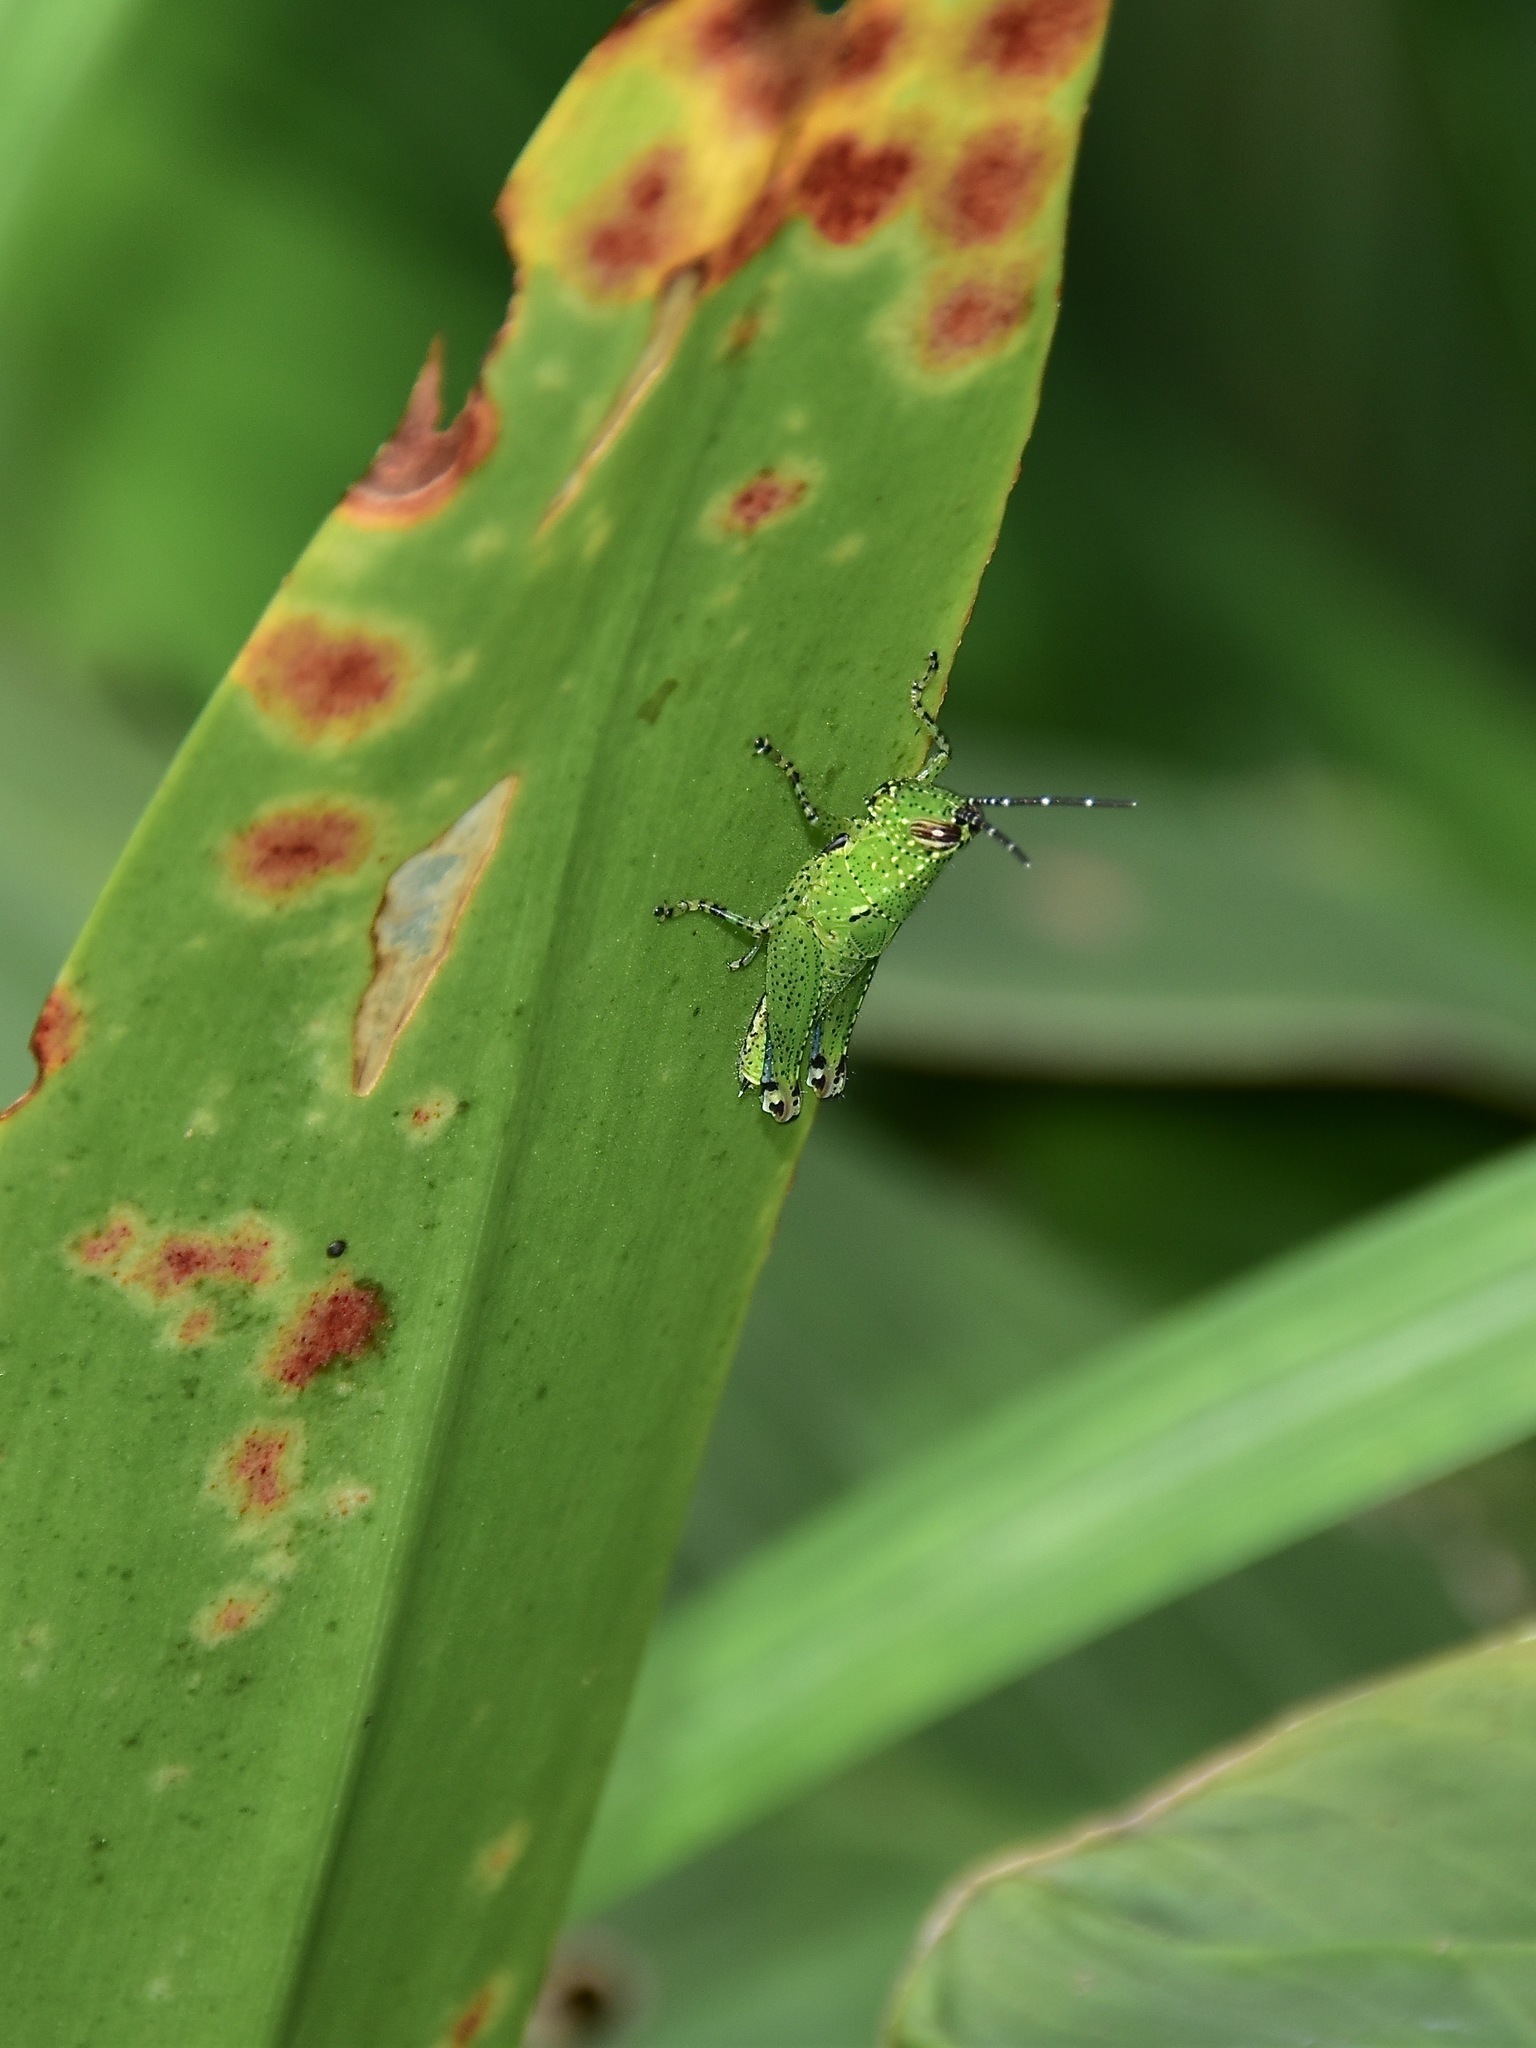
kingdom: Animalia
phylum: Arthropoda
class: Insecta
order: Orthoptera
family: Acrididae
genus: Xenocatantops
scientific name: Xenocatantops humile
